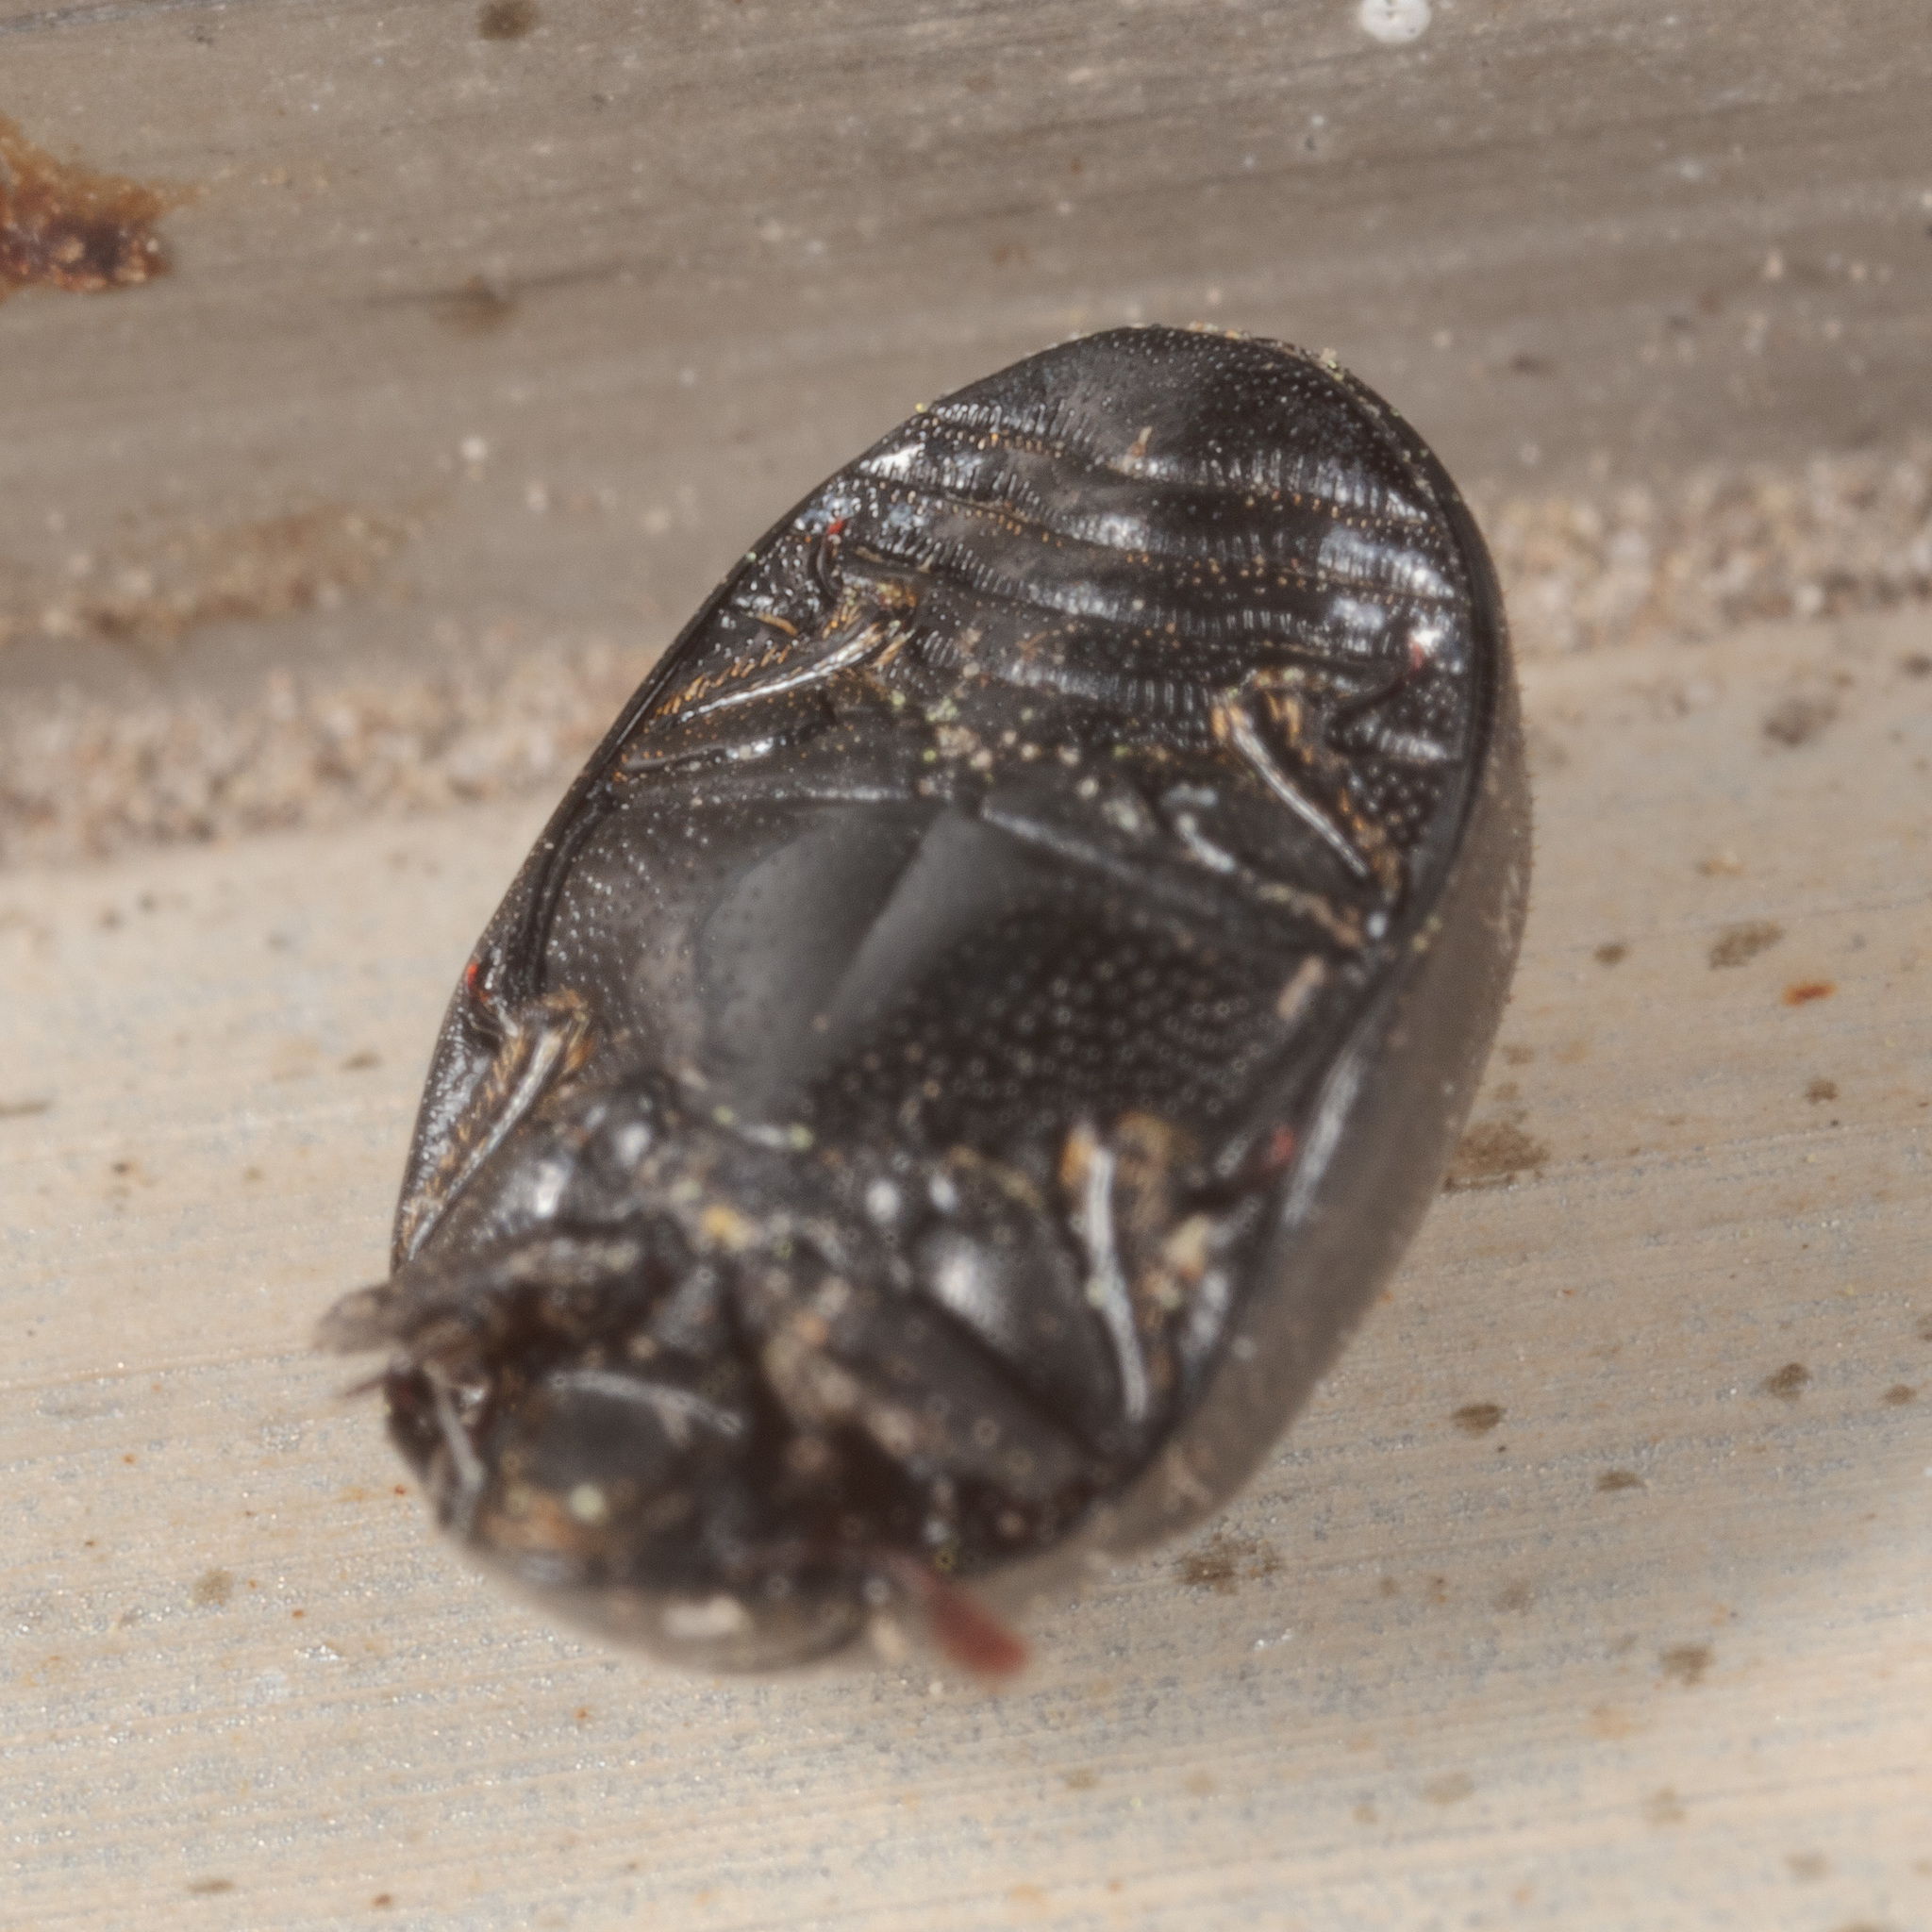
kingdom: Animalia
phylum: Arthropoda
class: Insecta
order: Coleoptera
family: Nosodendridae
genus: Nosodendron
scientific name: Nosodendron unicolor
